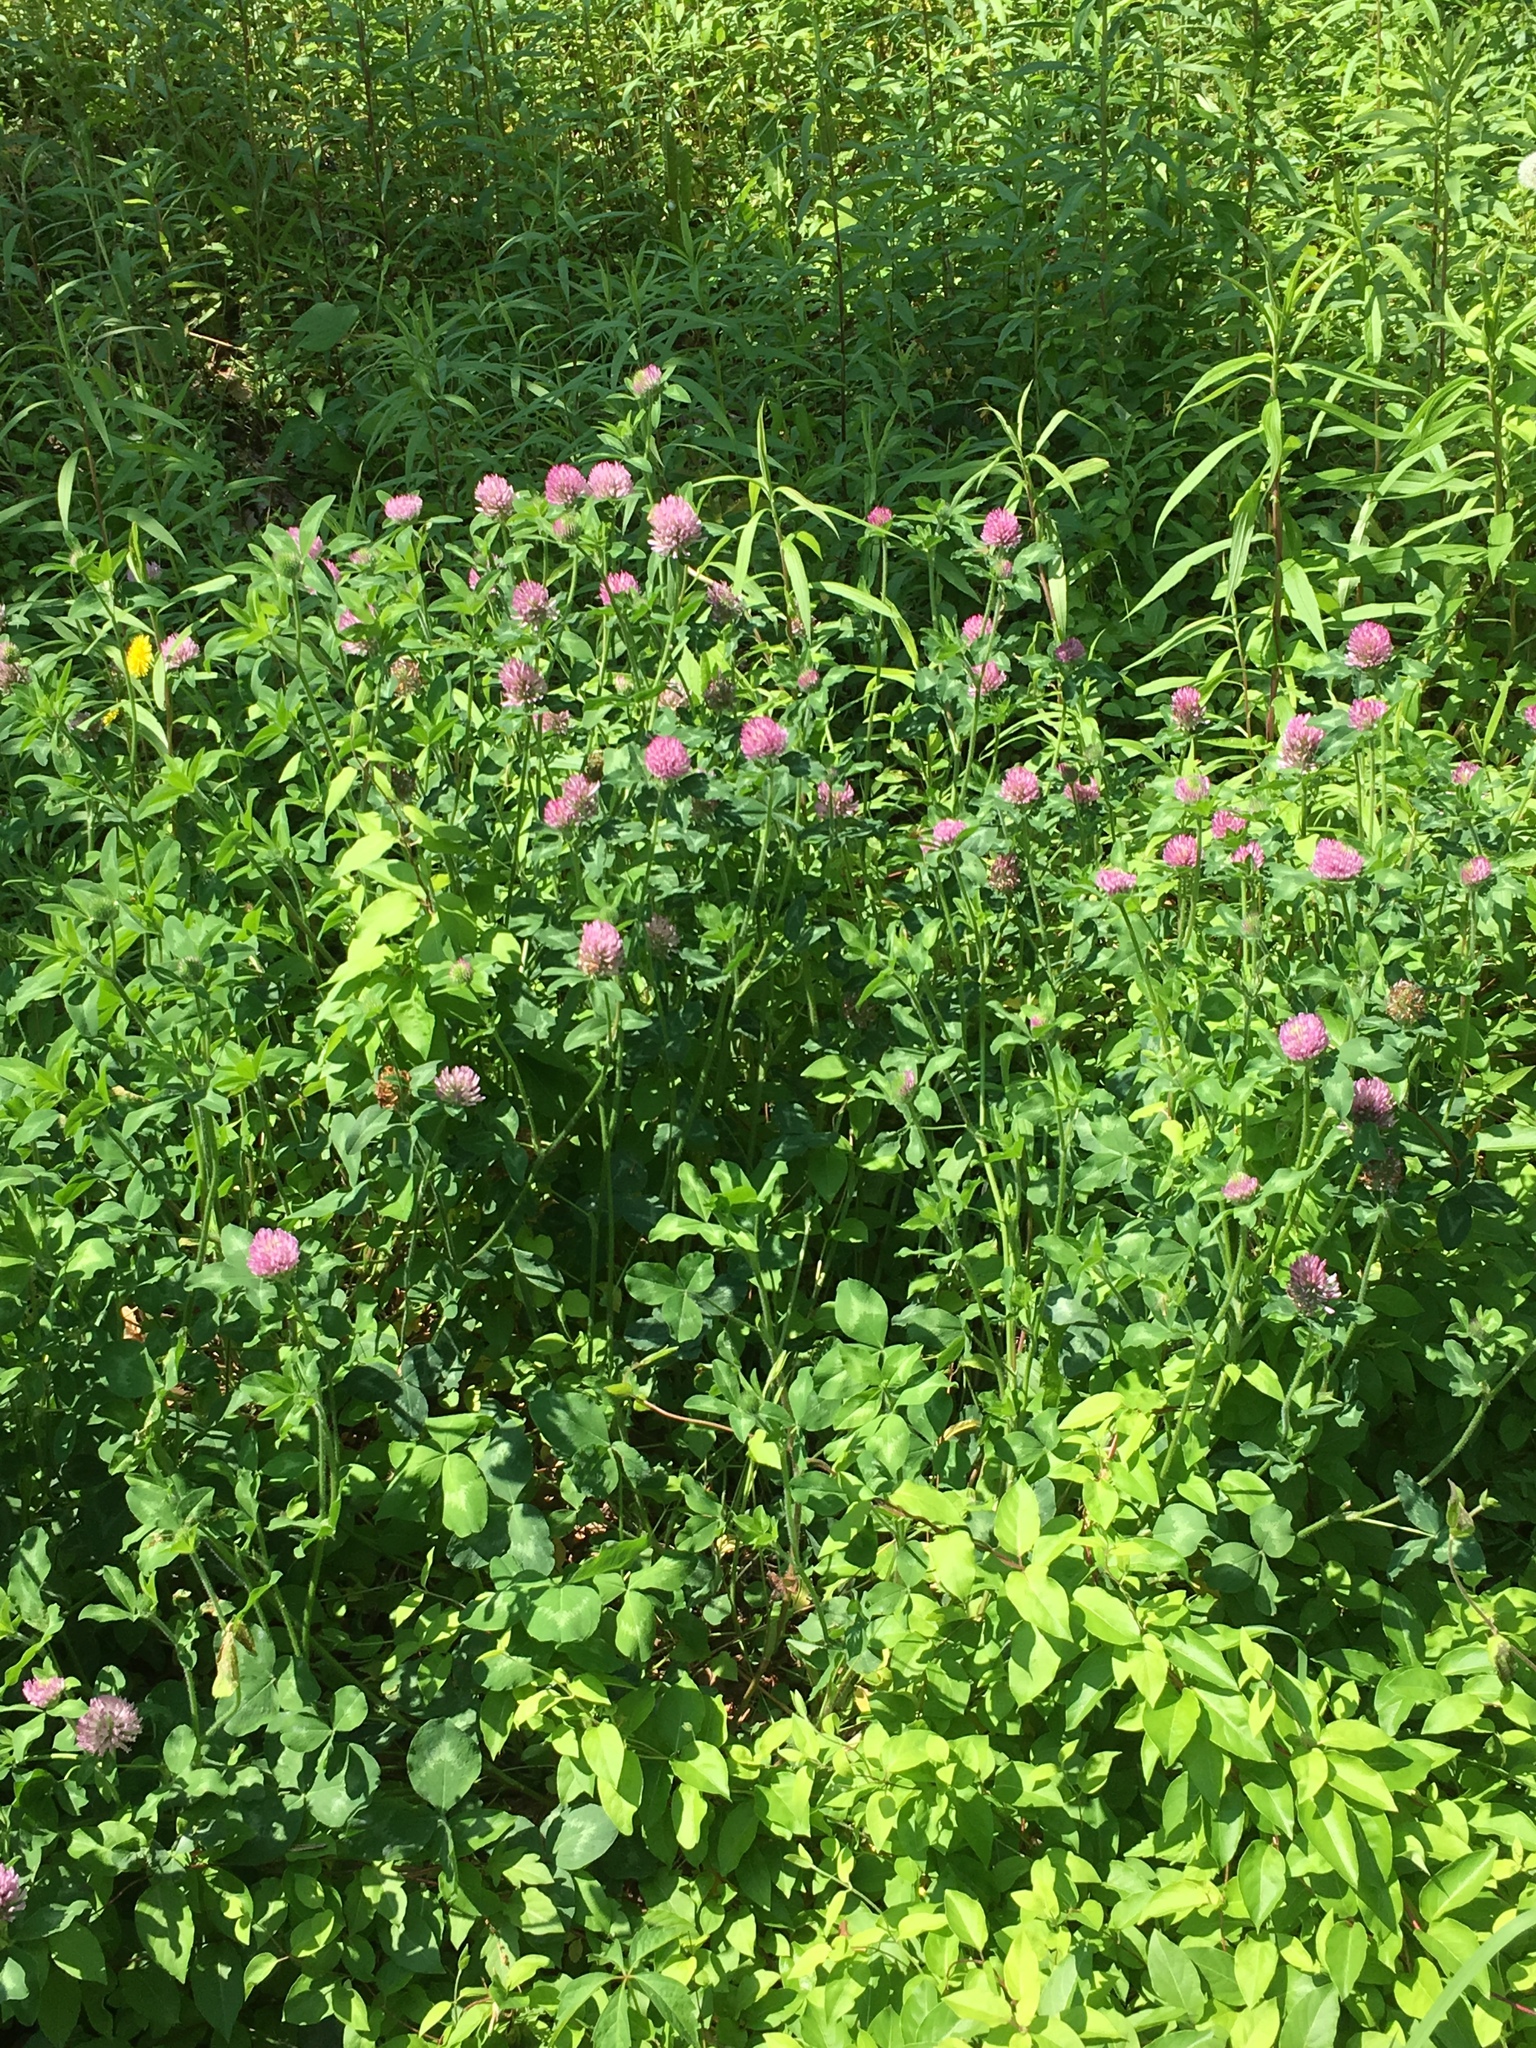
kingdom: Plantae
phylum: Tracheophyta
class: Magnoliopsida
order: Fabales
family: Fabaceae
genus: Trifolium
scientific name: Trifolium pratense
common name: Red clover
